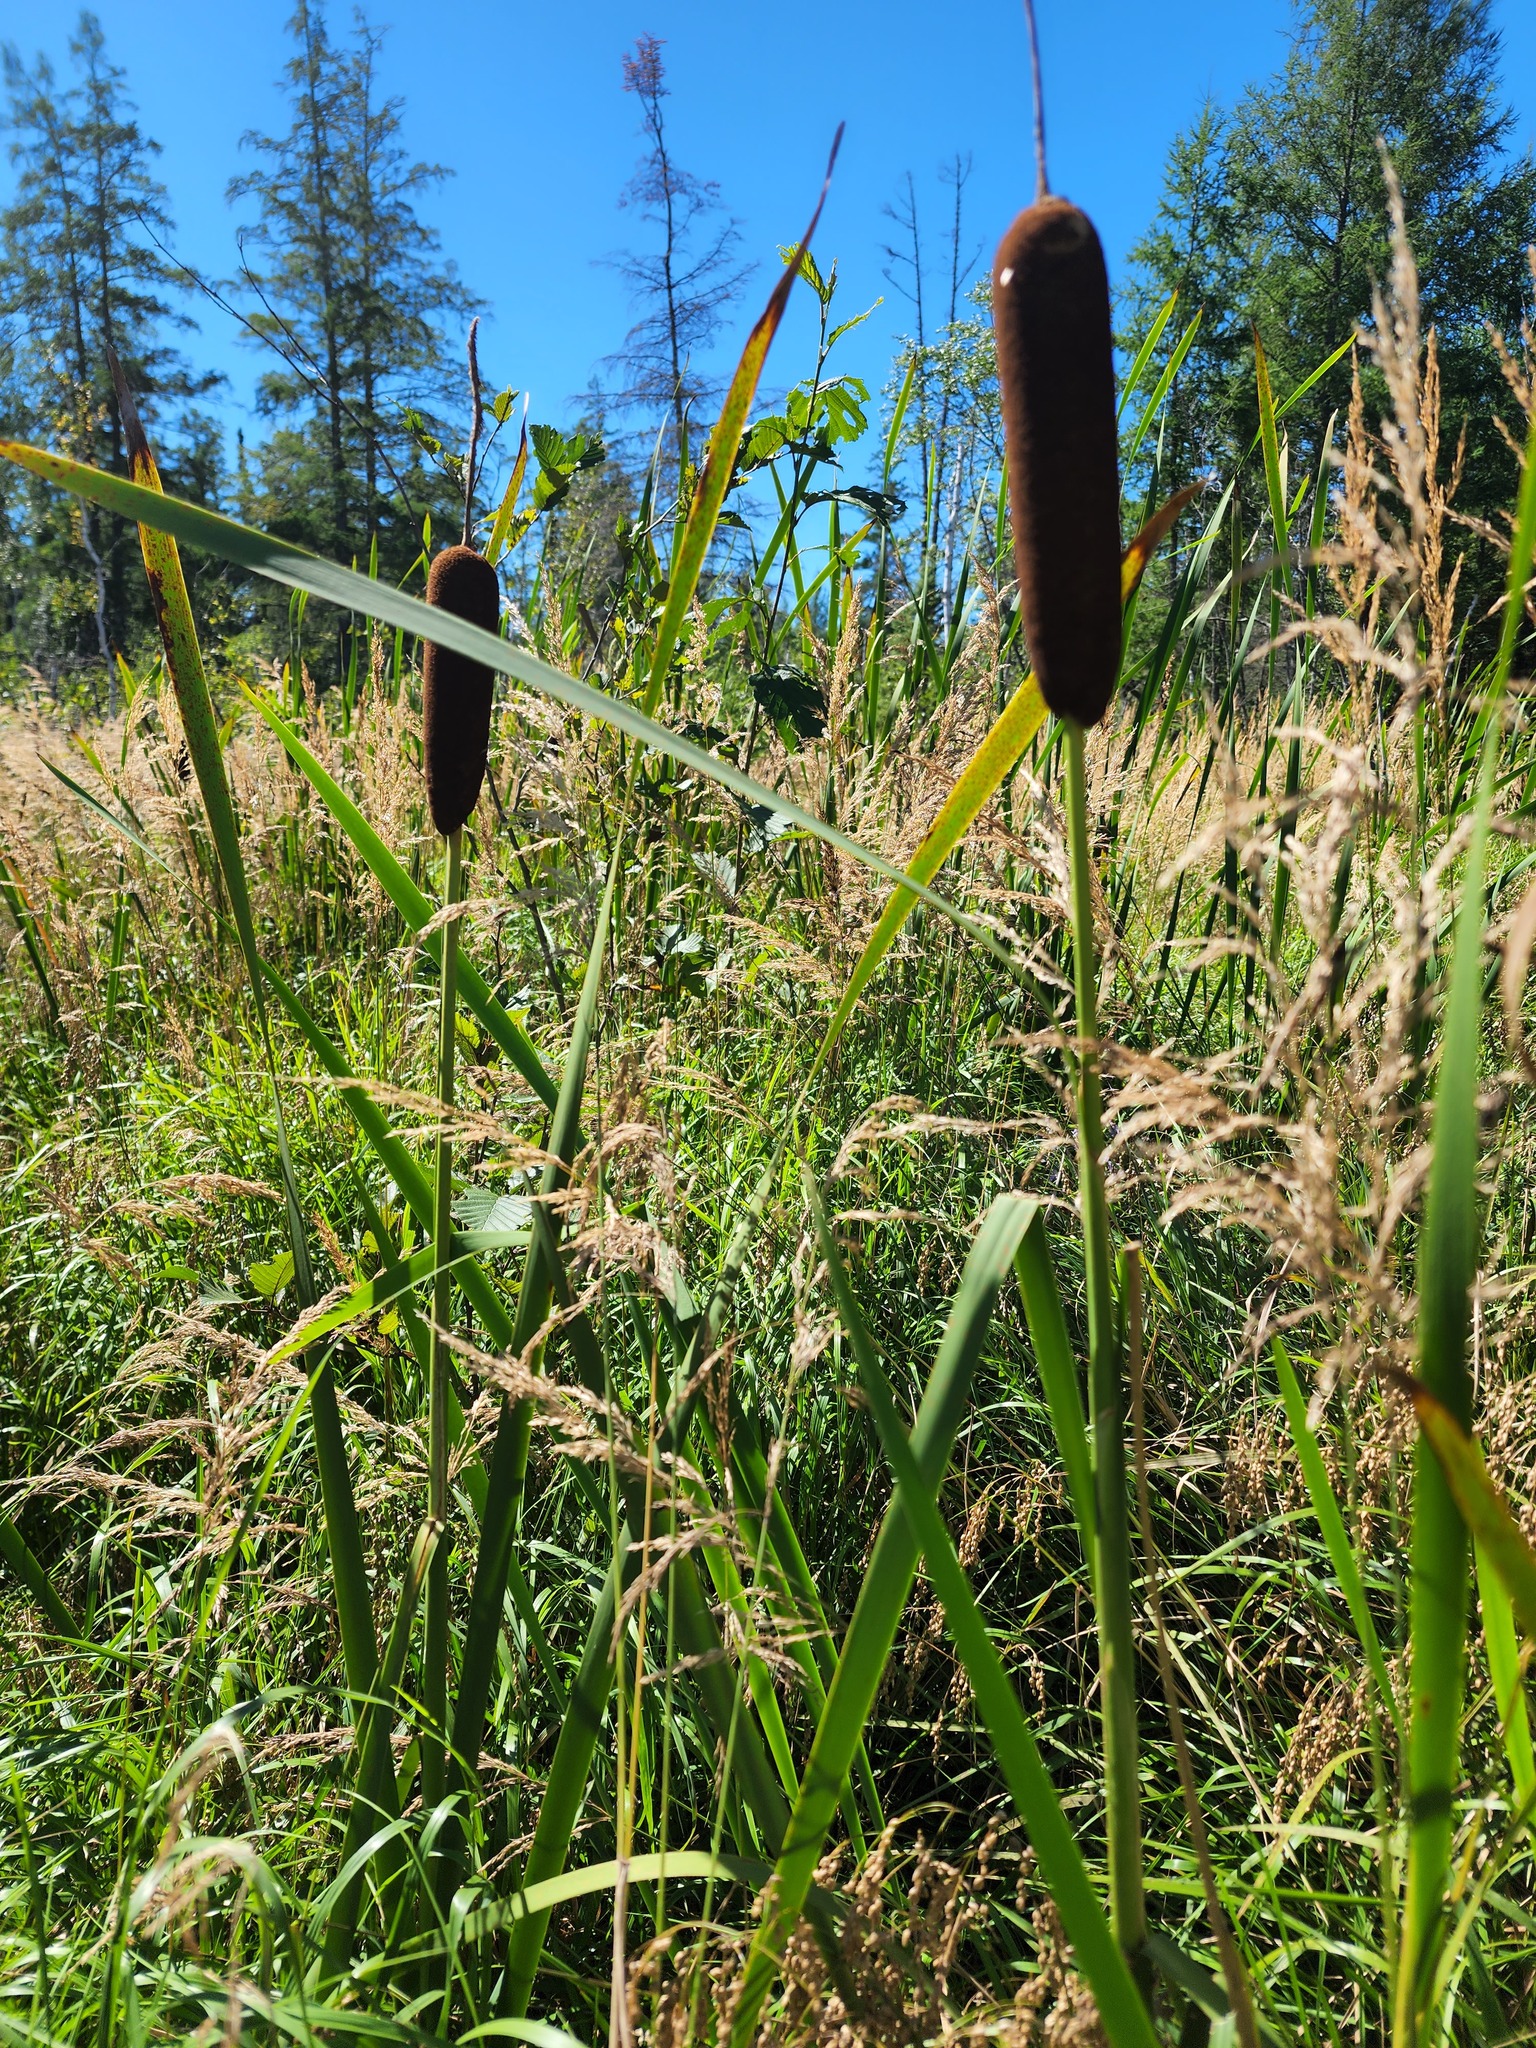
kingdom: Plantae
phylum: Tracheophyta
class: Liliopsida
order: Poales
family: Typhaceae
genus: Typha
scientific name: Typha latifolia
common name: Broadleaf cattail
